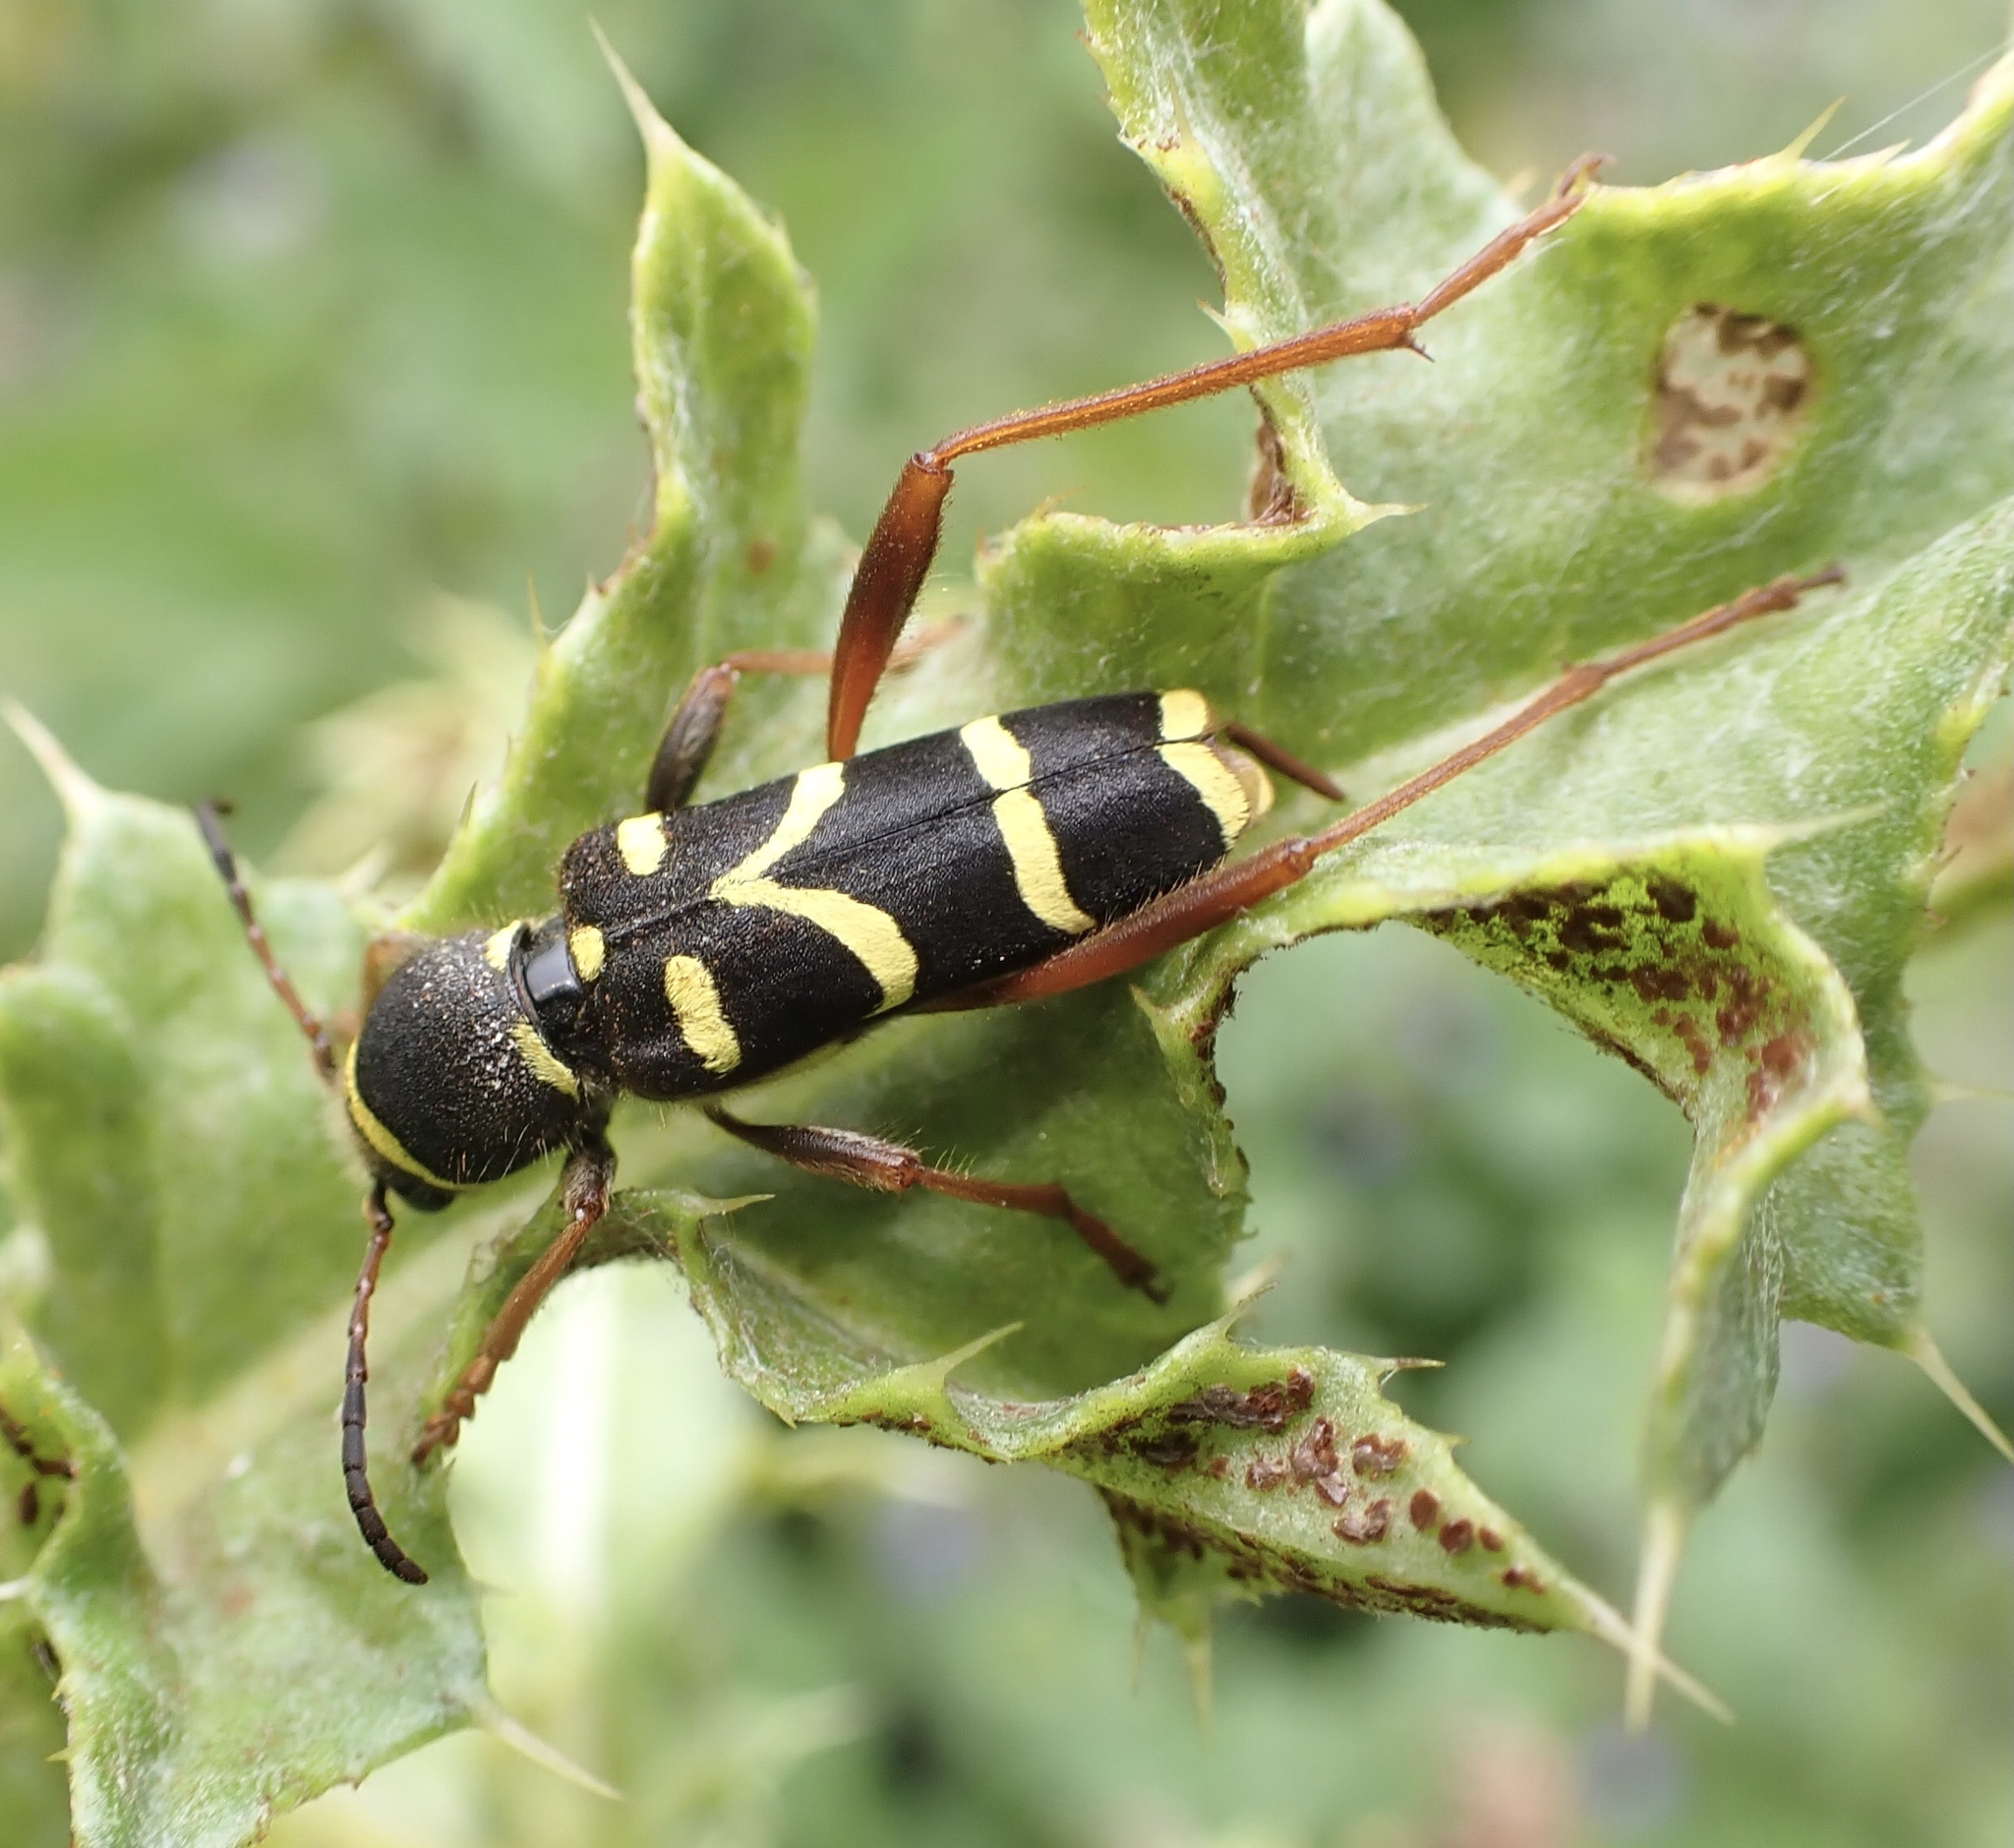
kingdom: Animalia
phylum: Arthropoda
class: Insecta
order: Coleoptera
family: Cerambycidae
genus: Clytus
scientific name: Clytus arietis
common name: Wasp beetle
